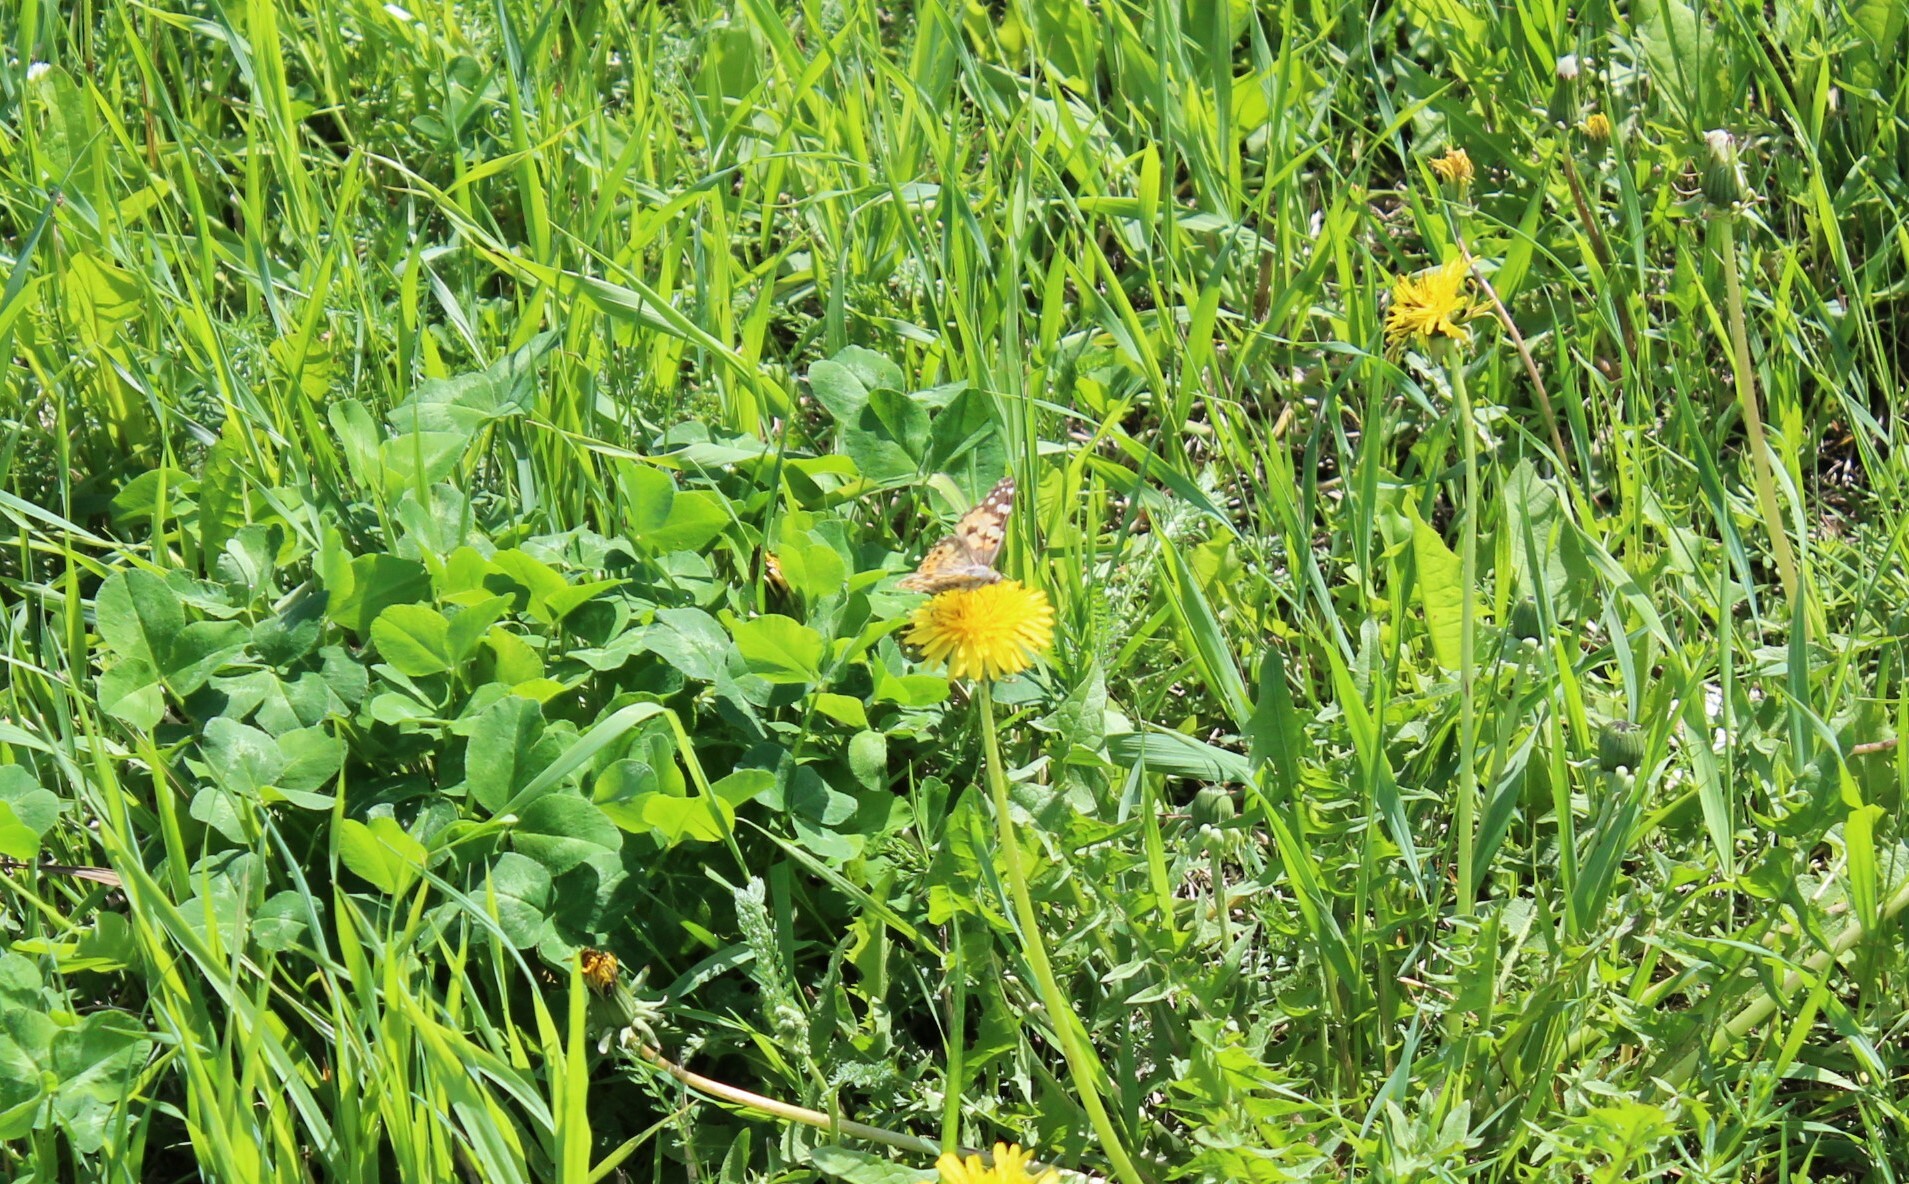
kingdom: Animalia
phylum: Arthropoda
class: Insecta
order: Lepidoptera
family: Nymphalidae
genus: Vanessa
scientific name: Vanessa cardui
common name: Painted lady
